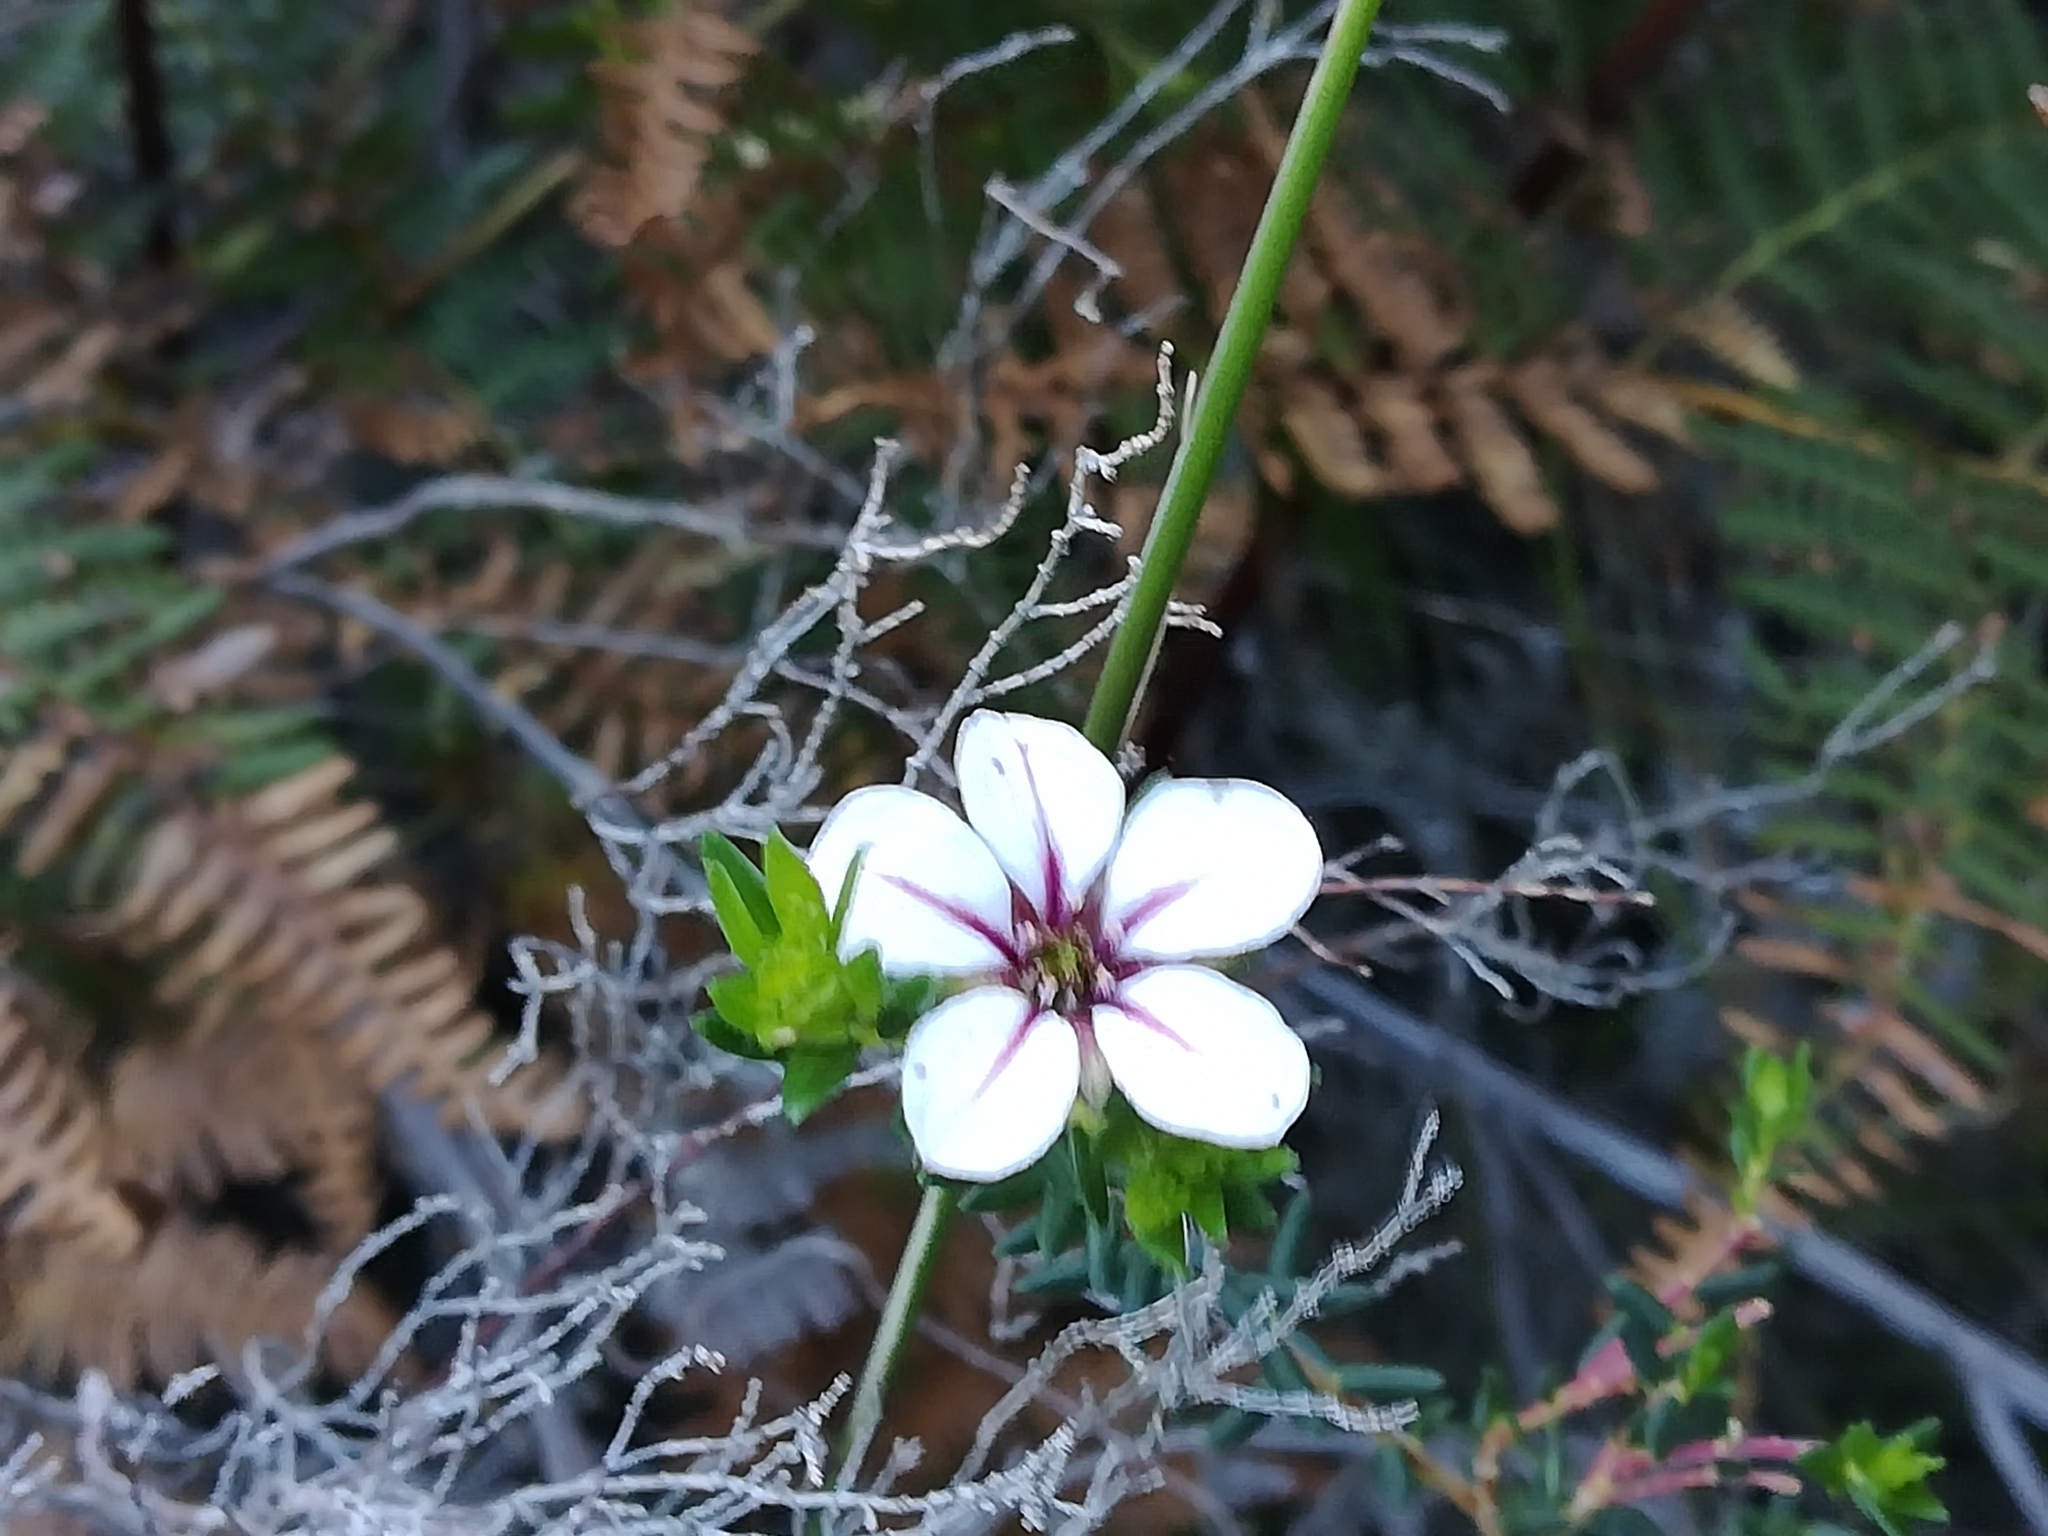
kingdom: Plantae
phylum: Tracheophyta
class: Magnoliopsida
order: Sapindales
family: Rutaceae
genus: Adenandra
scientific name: Adenandra uniflora
